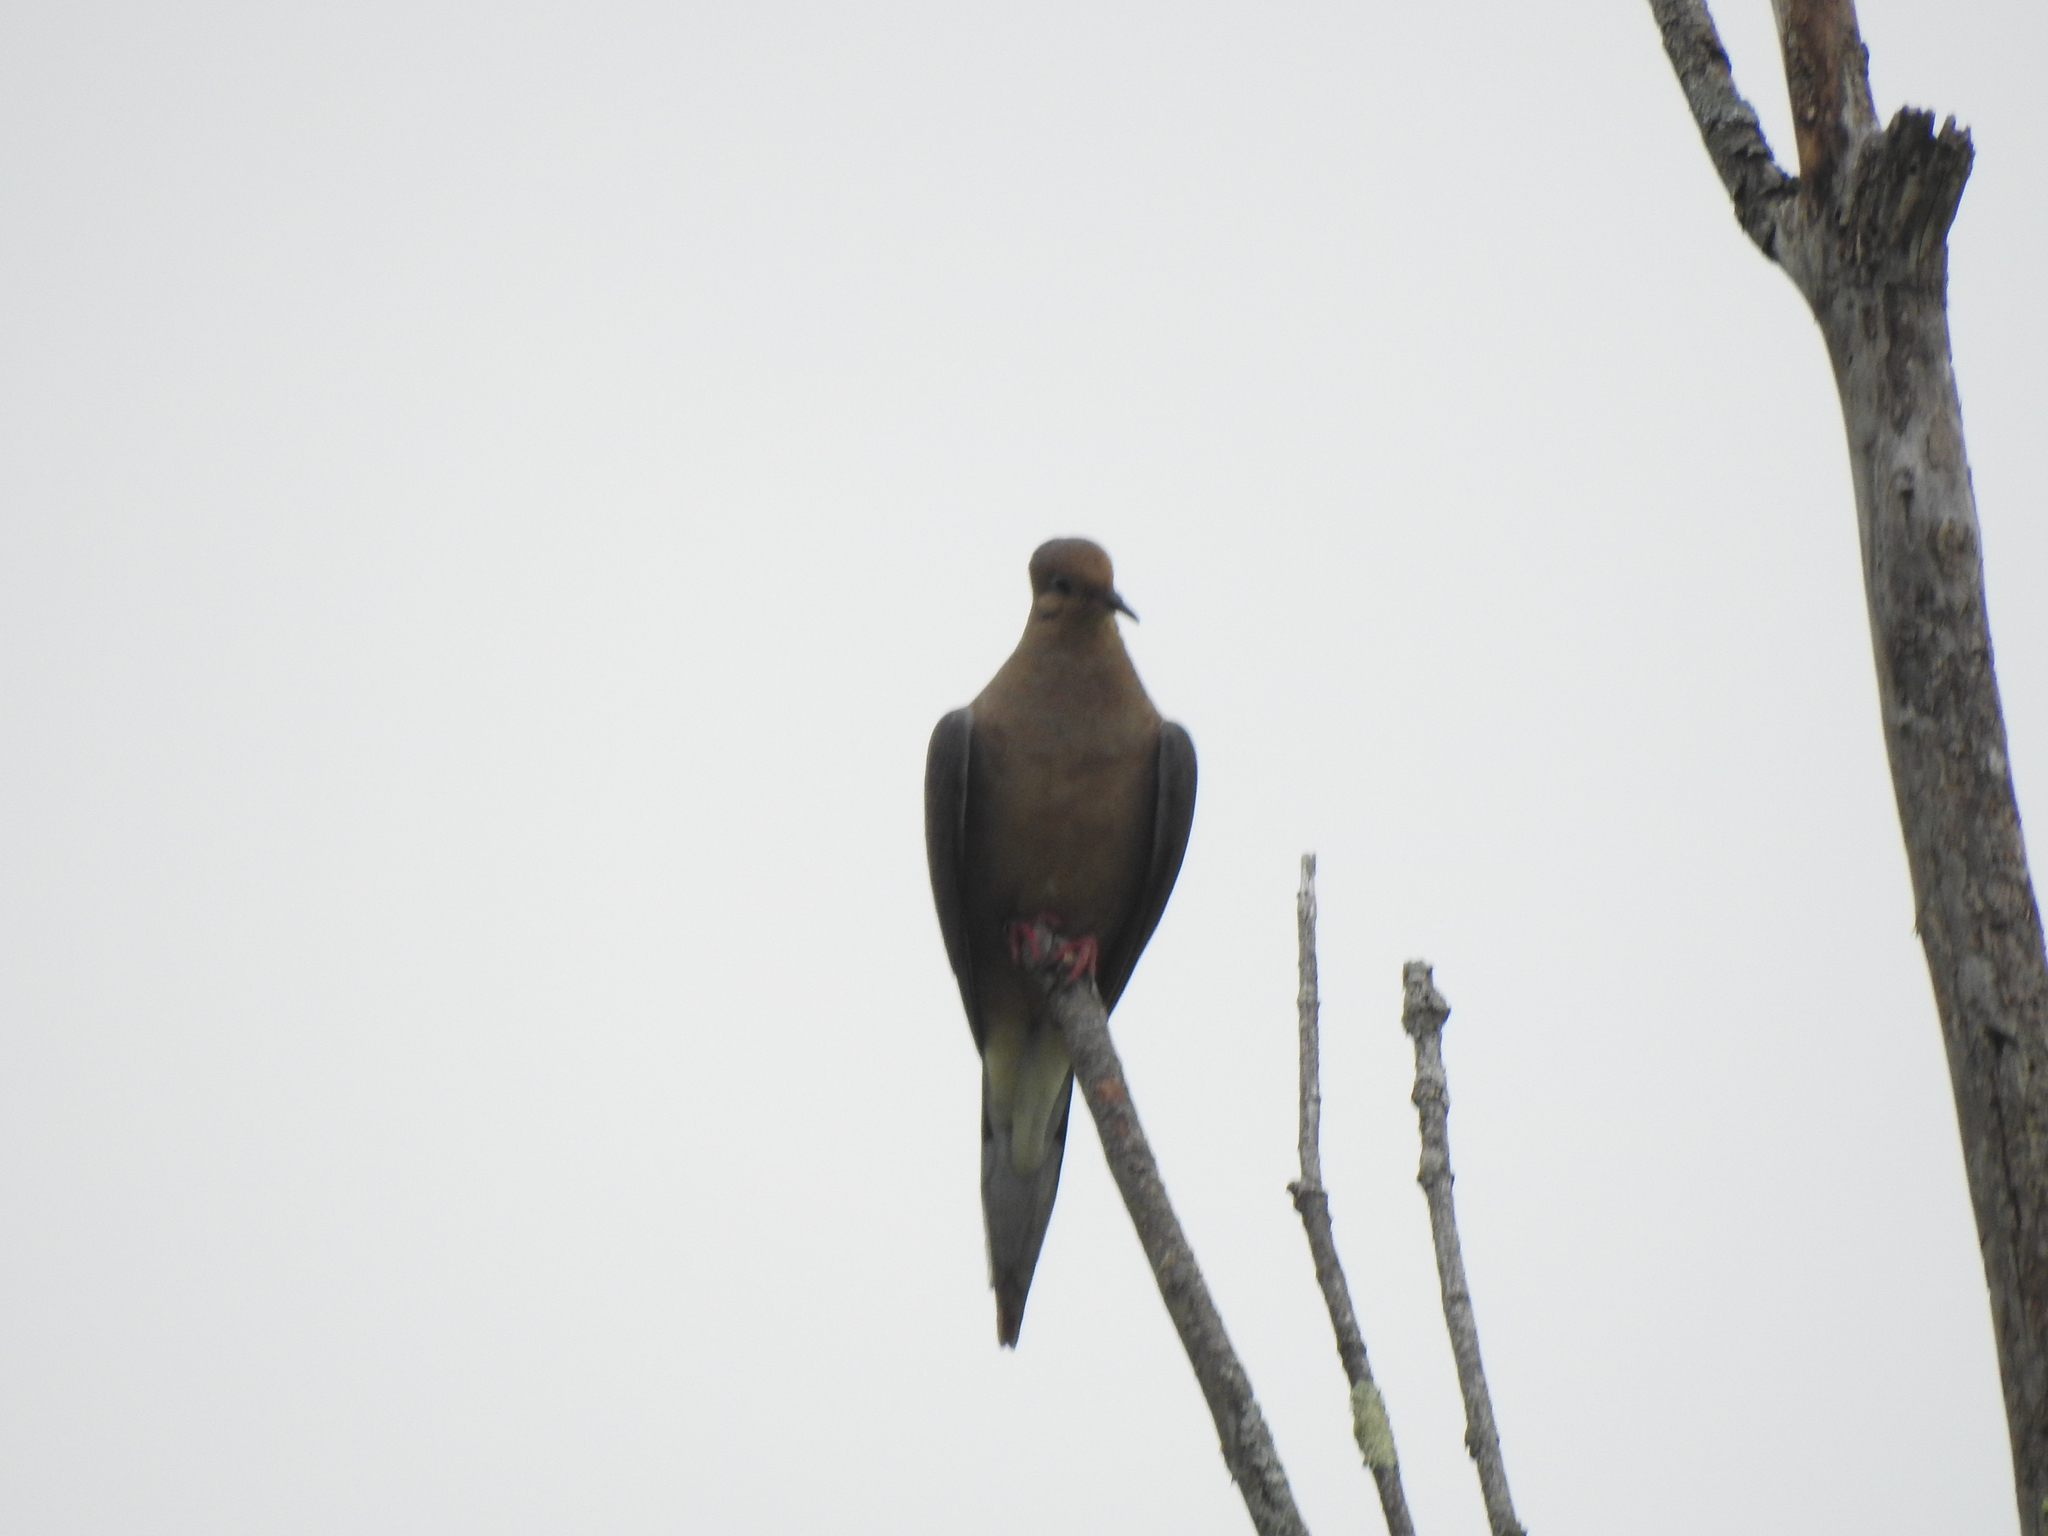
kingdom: Animalia
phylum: Chordata
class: Aves
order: Columbiformes
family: Columbidae
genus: Zenaida
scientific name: Zenaida macroura
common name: Mourning dove
